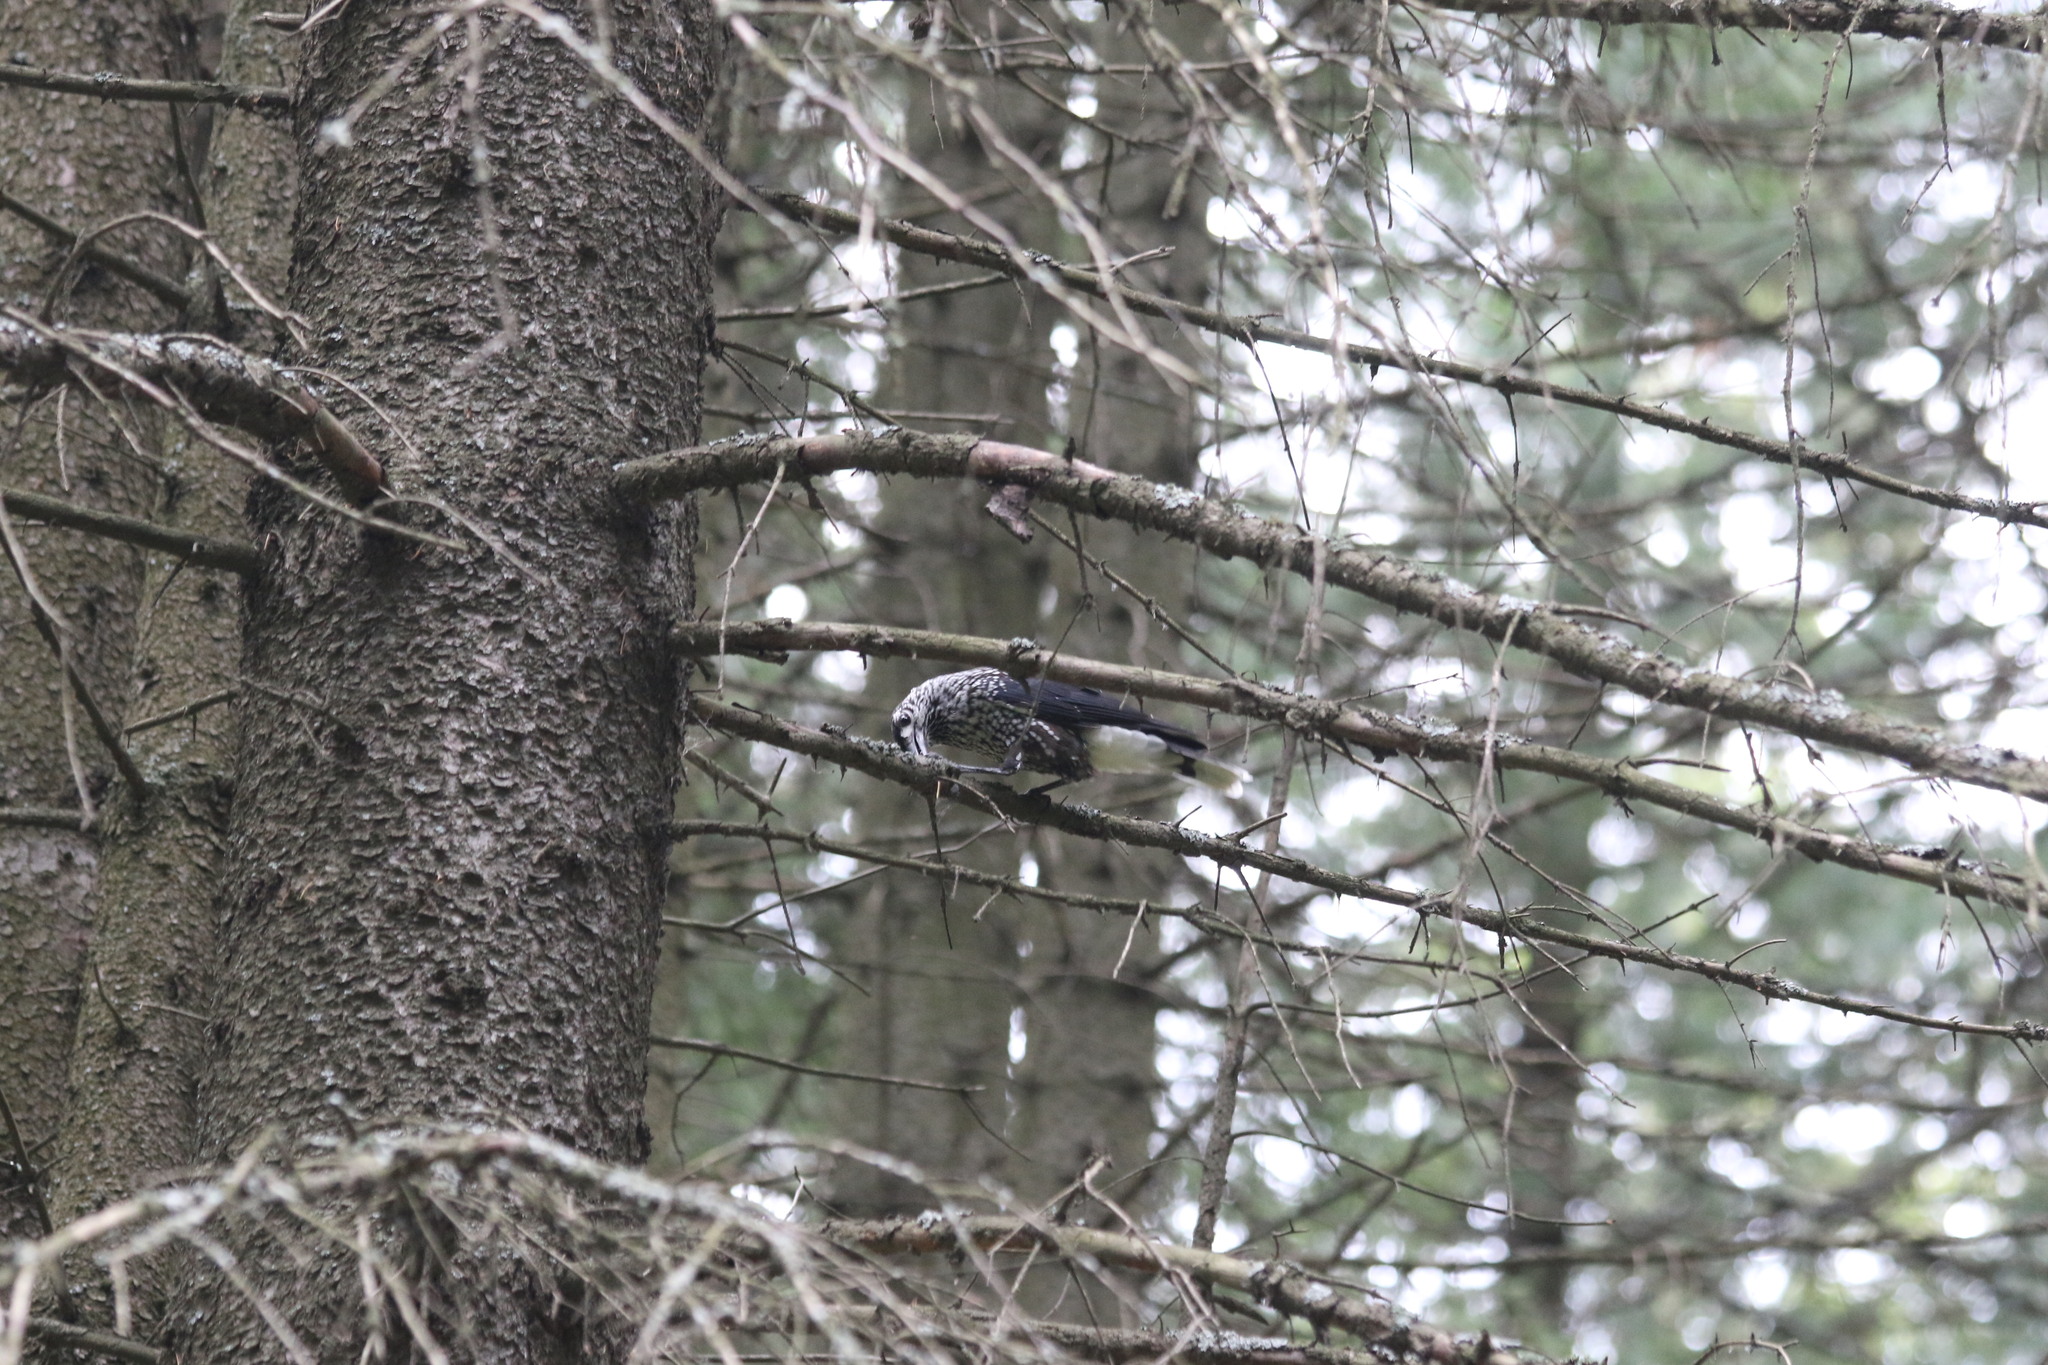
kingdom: Animalia
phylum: Chordata
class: Aves
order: Passeriformes
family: Corvidae
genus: Nucifraga
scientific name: Nucifraga caryocatactes
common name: Spotted nutcracker
